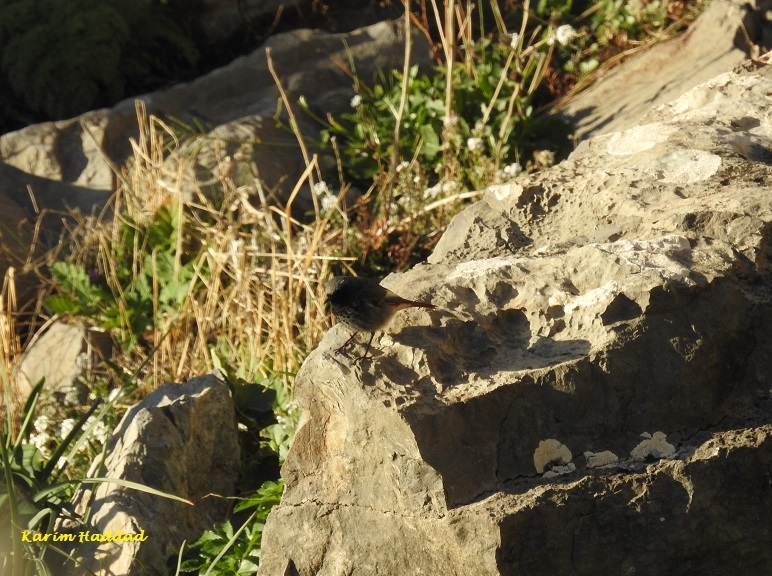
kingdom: Animalia
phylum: Chordata
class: Aves
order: Passeriformes
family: Muscicapidae
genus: Phoenicurus
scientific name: Phoenicurus ochruros
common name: Black redstart
